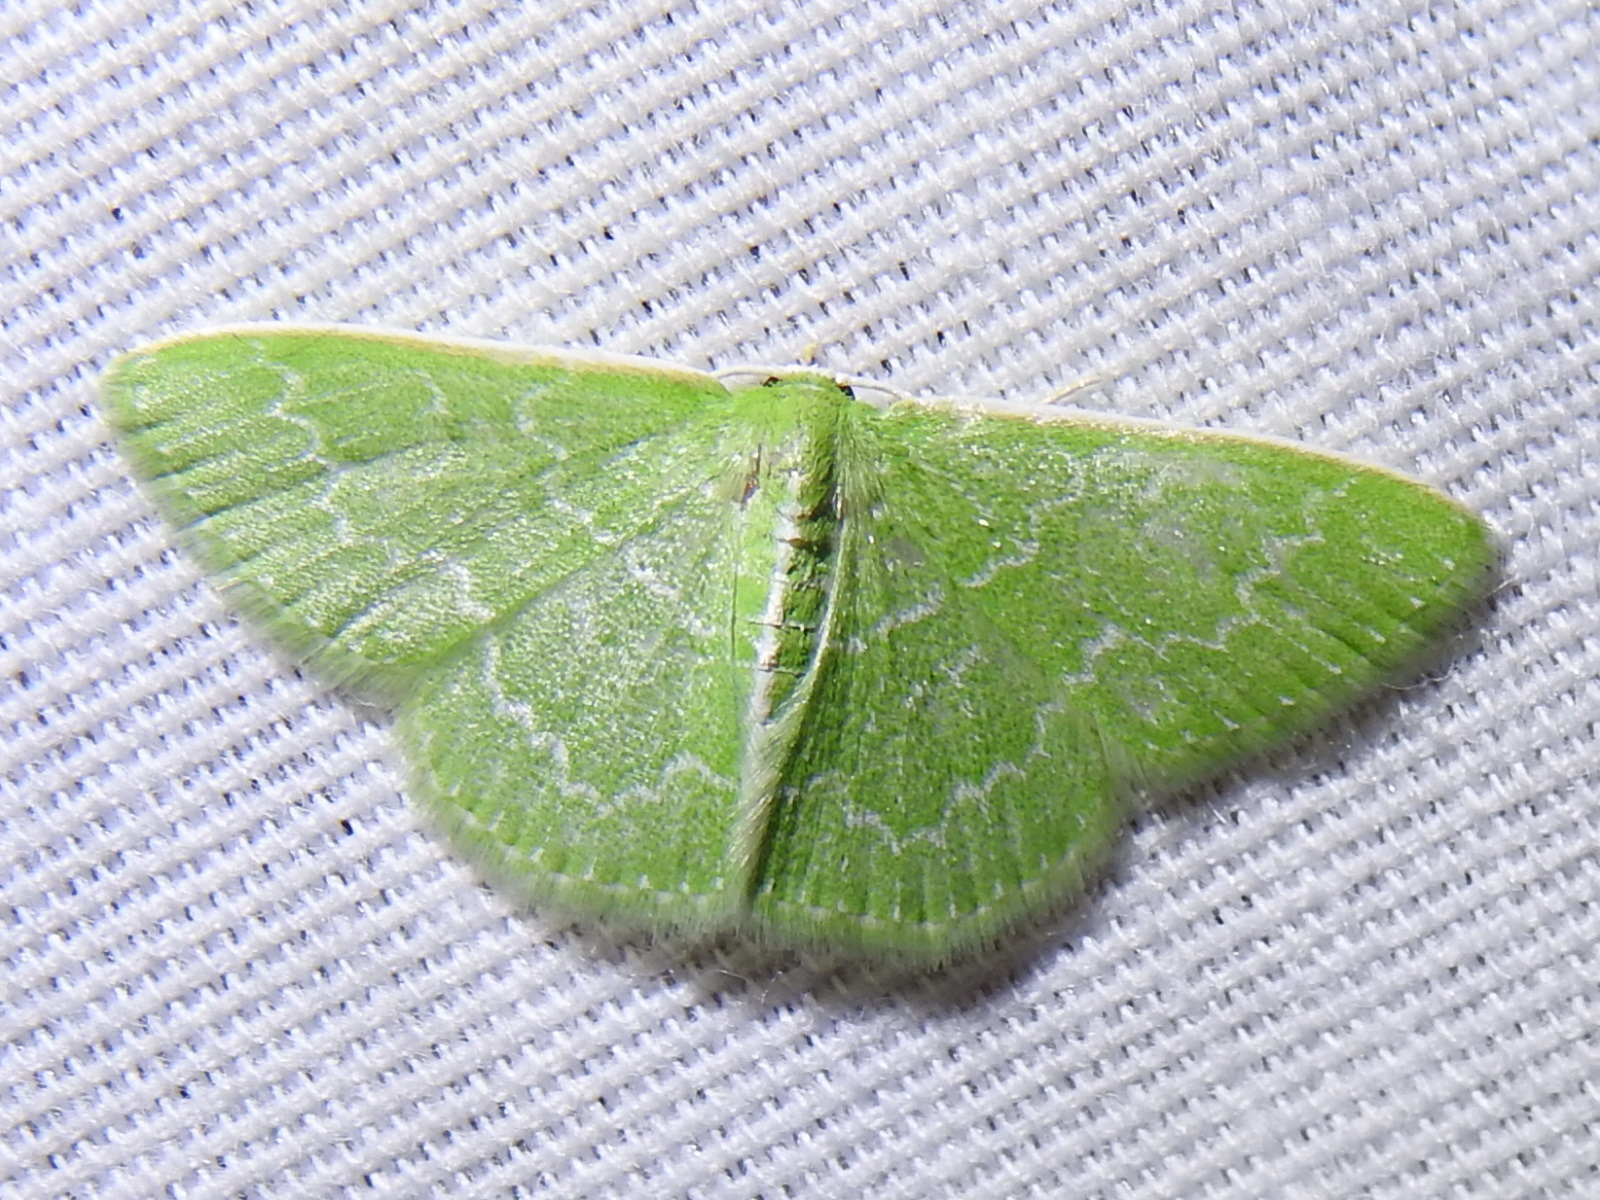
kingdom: Animalia
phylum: Arthropoda
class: Insecta
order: Lepidoptera
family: Geometridae
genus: Synchlora
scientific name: Synchlora frondaria
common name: Southern emerald
